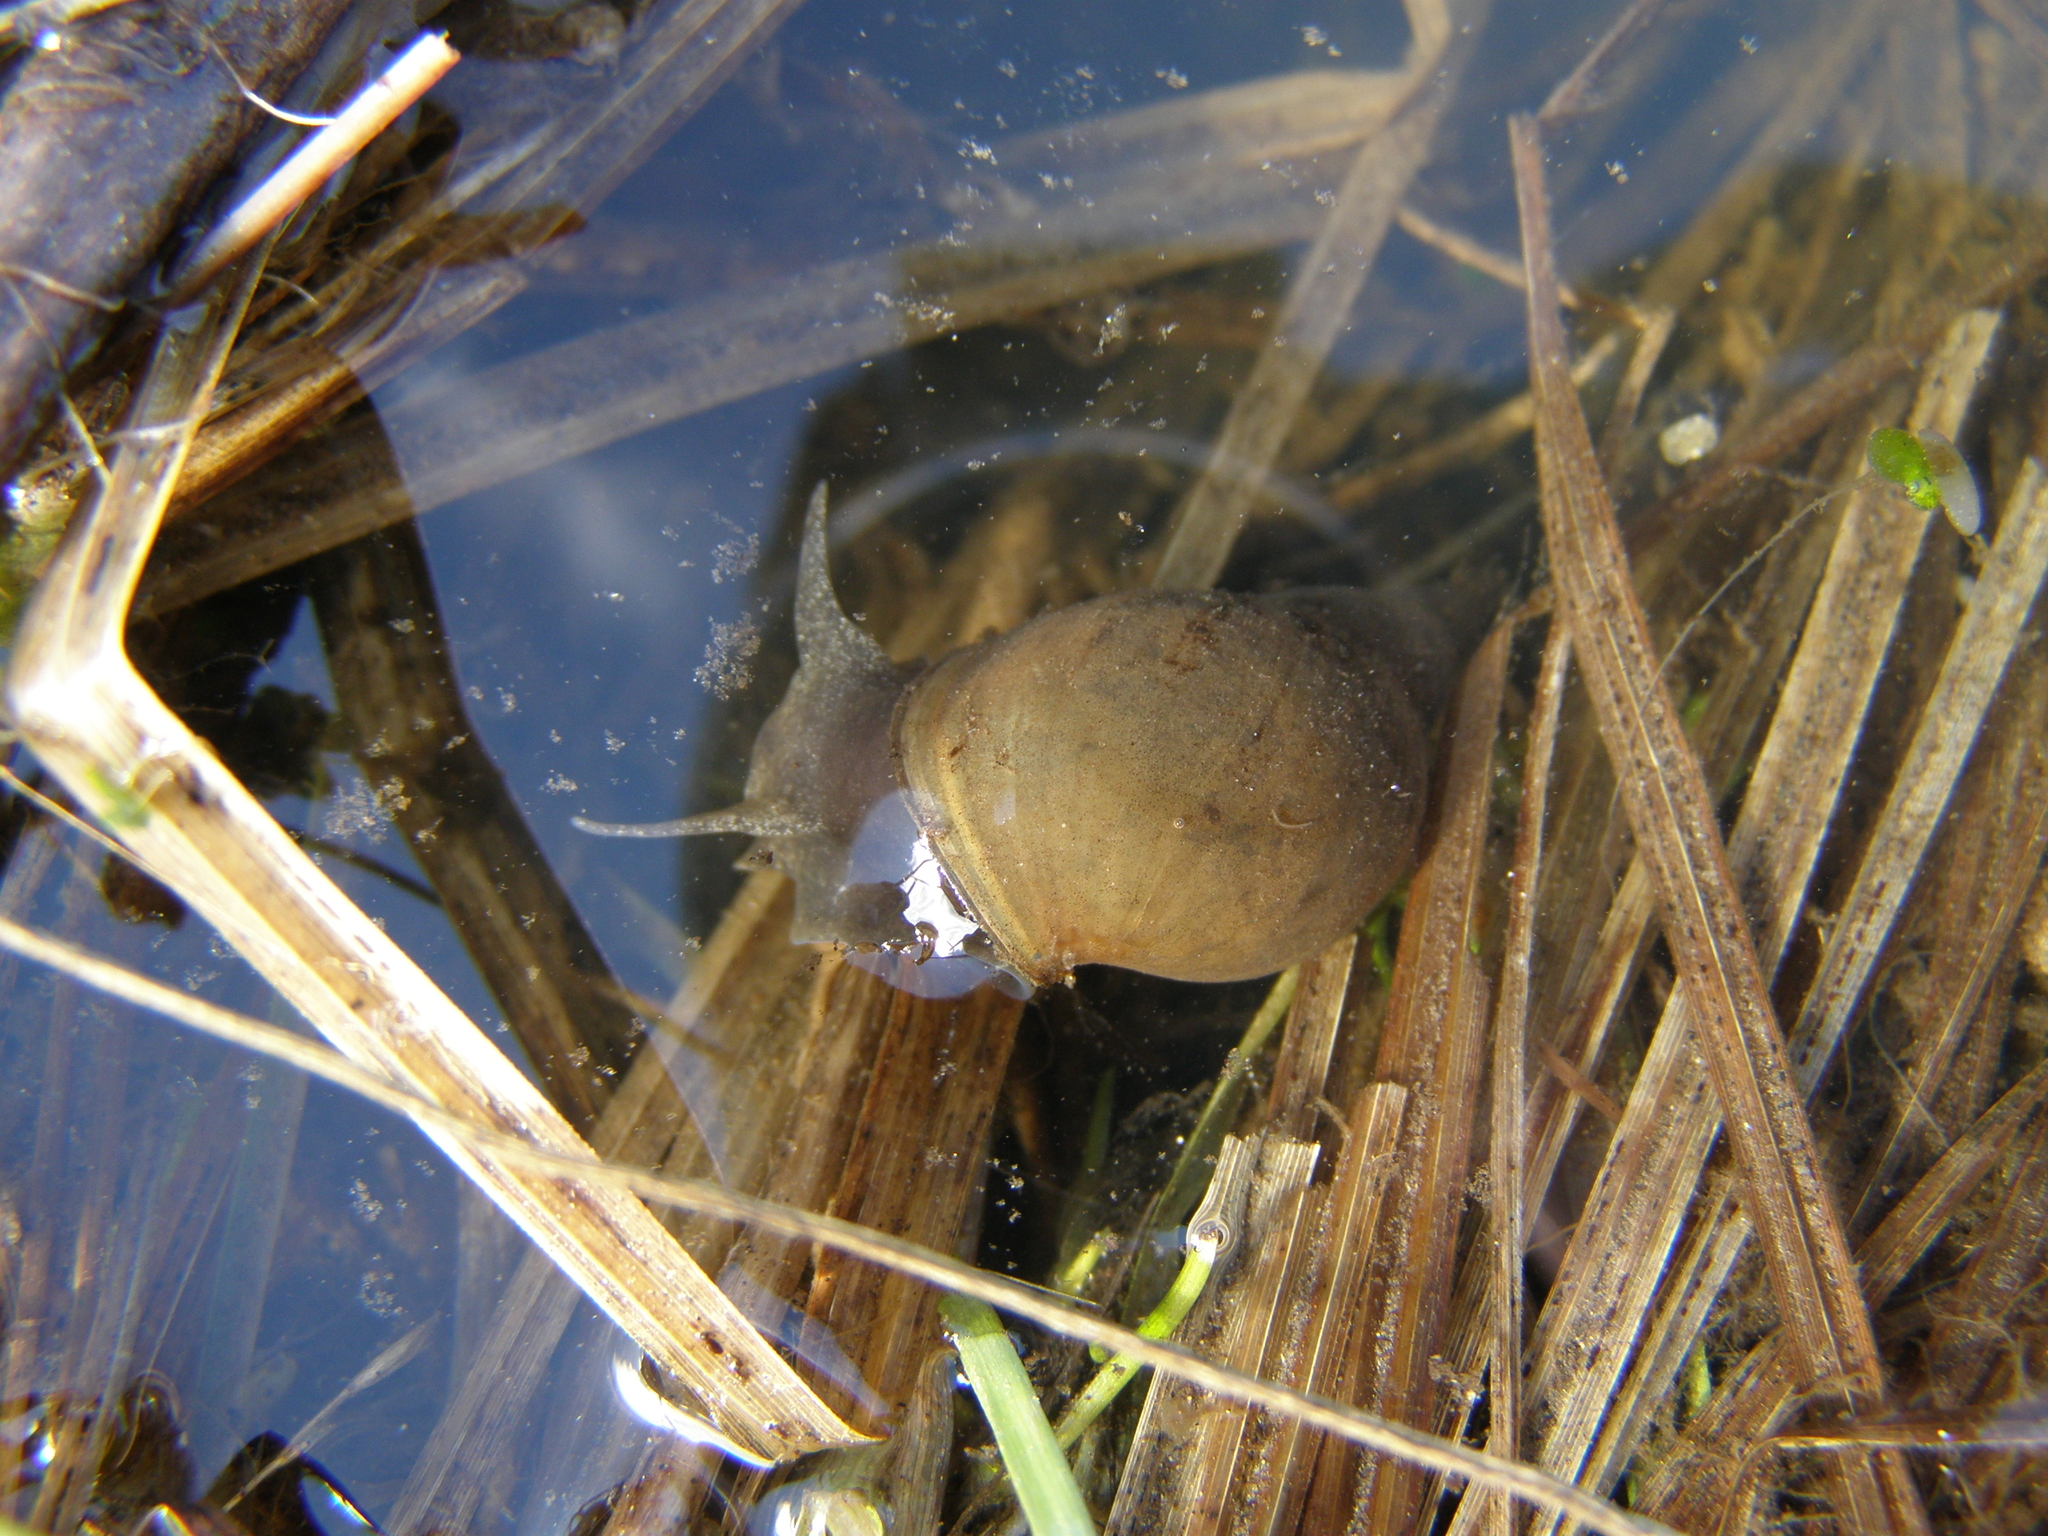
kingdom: Animalia
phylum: Mollusca
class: Gastropoda
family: Lymnaeidae
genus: Lymnaea
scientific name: Lymnaea stagnalis
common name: Great pond snail
